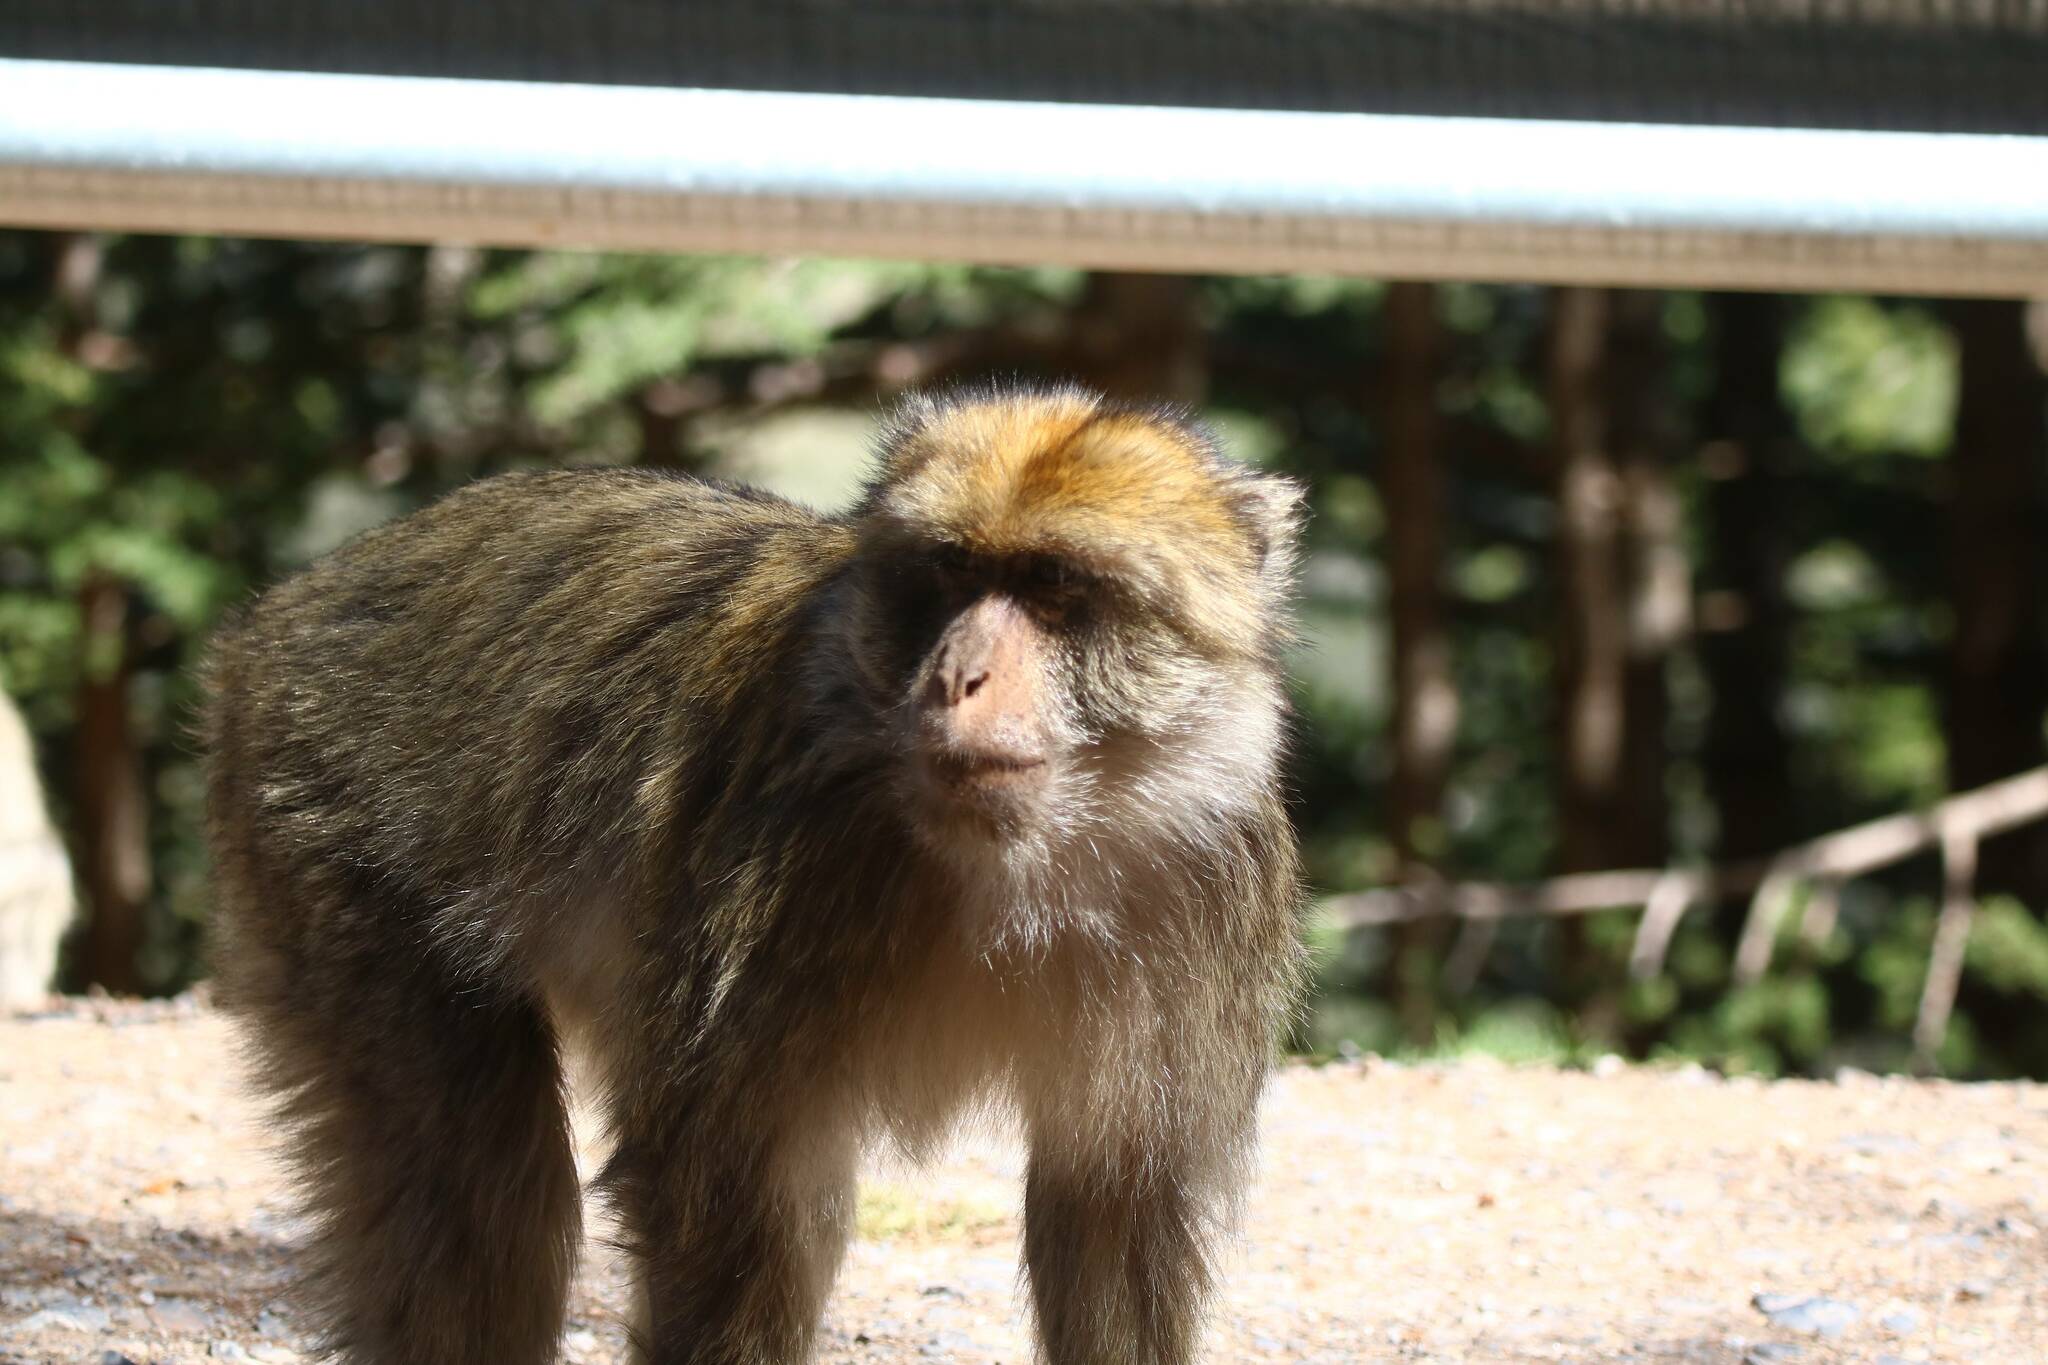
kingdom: Animalia
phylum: Chordata
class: Mammalia
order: Primates
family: Cercopithecidae
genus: Macaca
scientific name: Macaca sylvanus
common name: Barbary macaque
